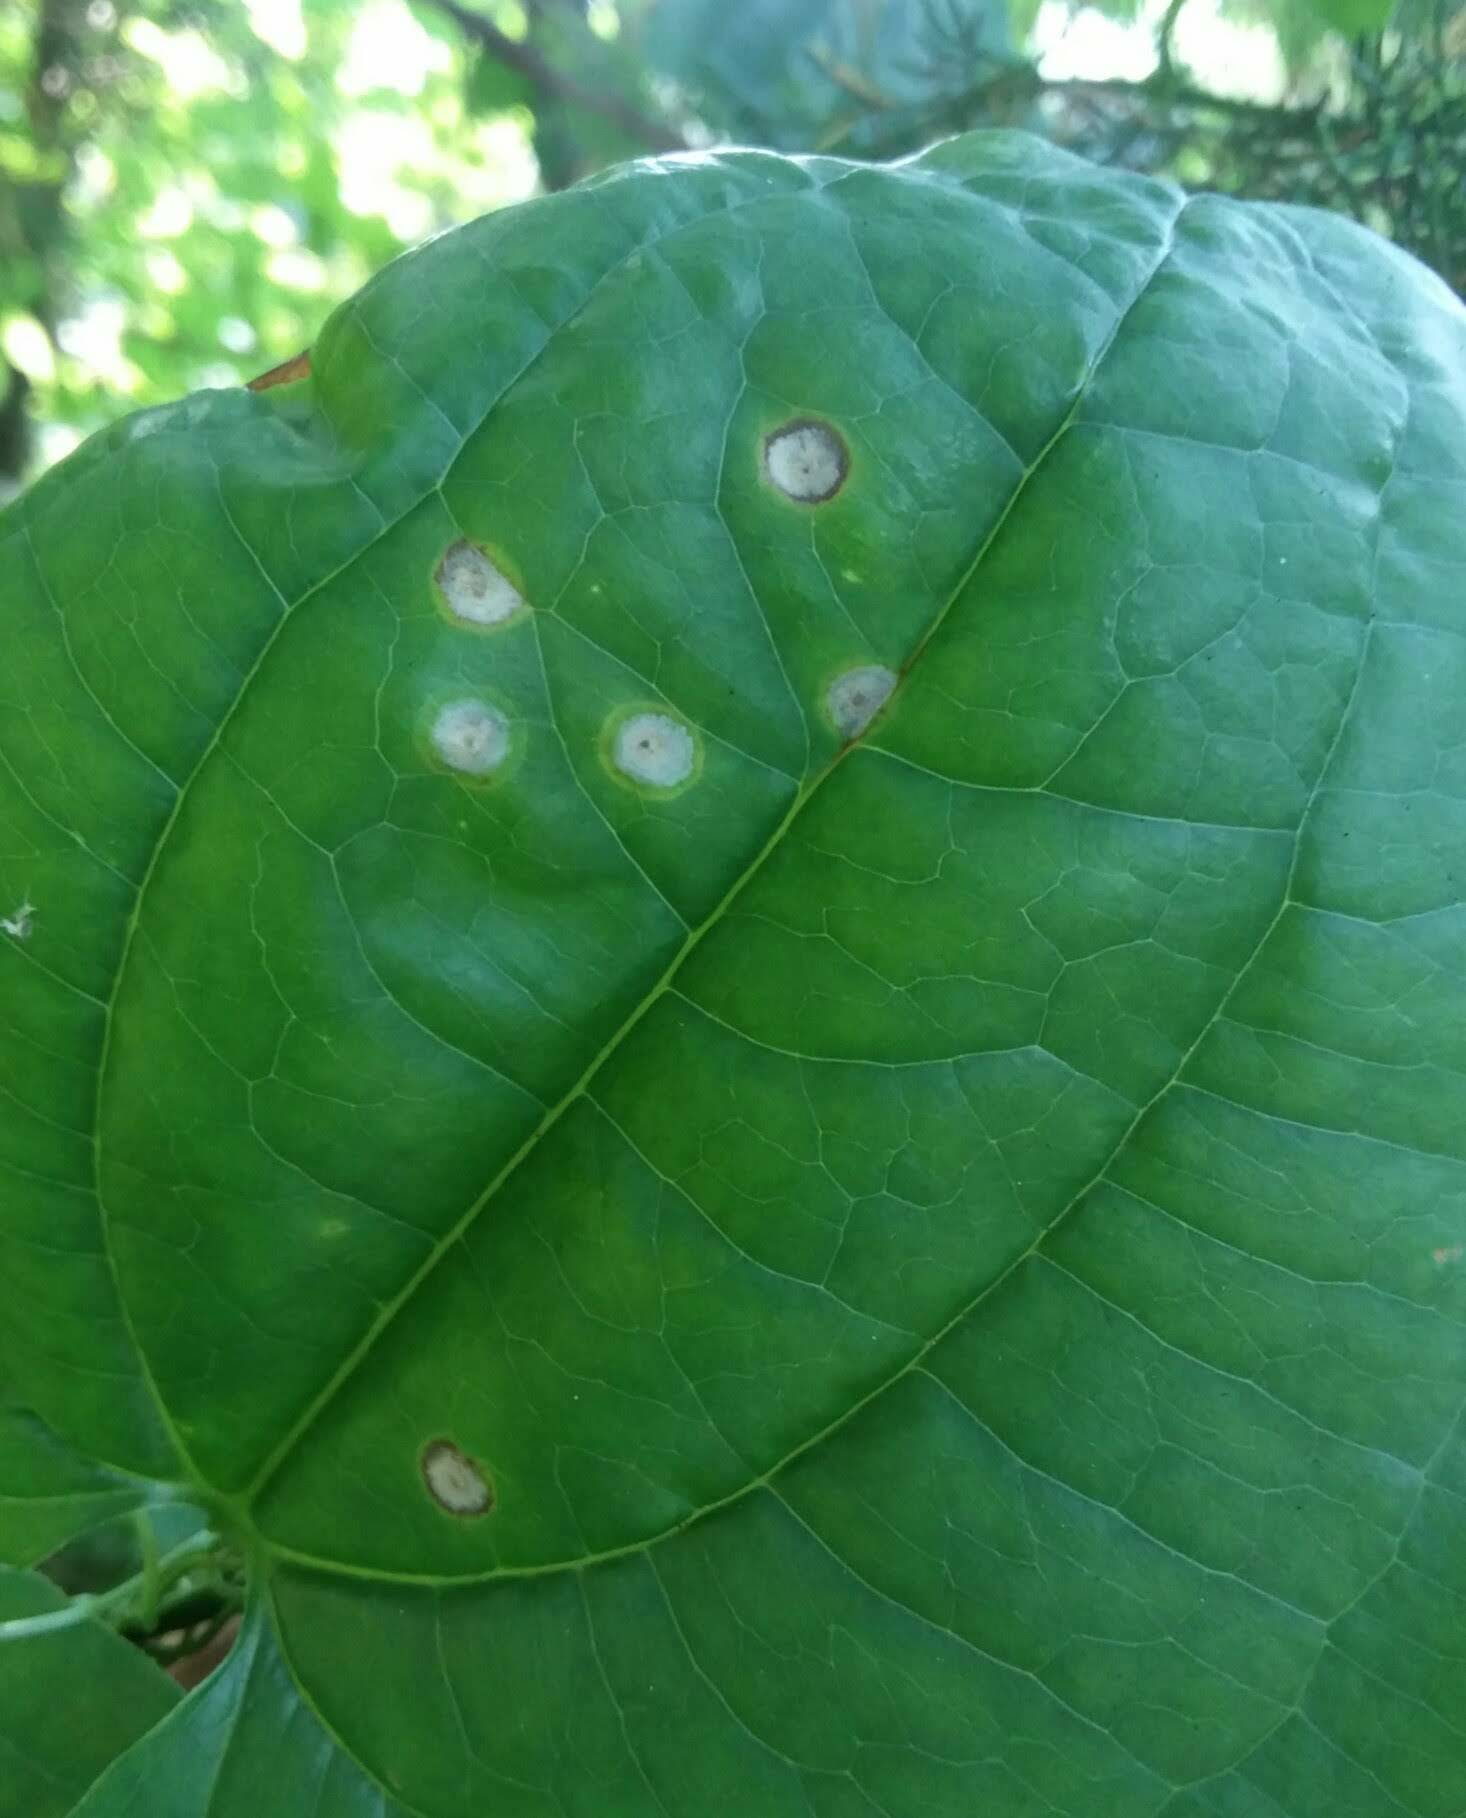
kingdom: Animalia
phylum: Arthropoda
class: Insecta
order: Diptera
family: Cecidomyiidae
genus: Meunieriella
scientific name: Meunieriella
